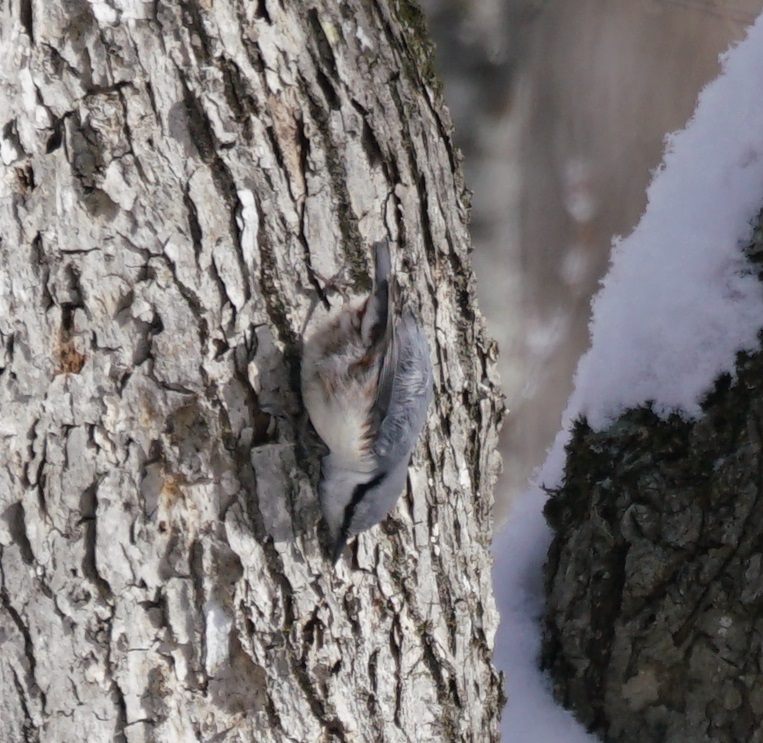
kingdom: Animalia
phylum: Chordata
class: Aves
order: Passeriformes
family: Sittidae
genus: Sitta
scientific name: Sitta europaea
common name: Eurasian nuthatch
